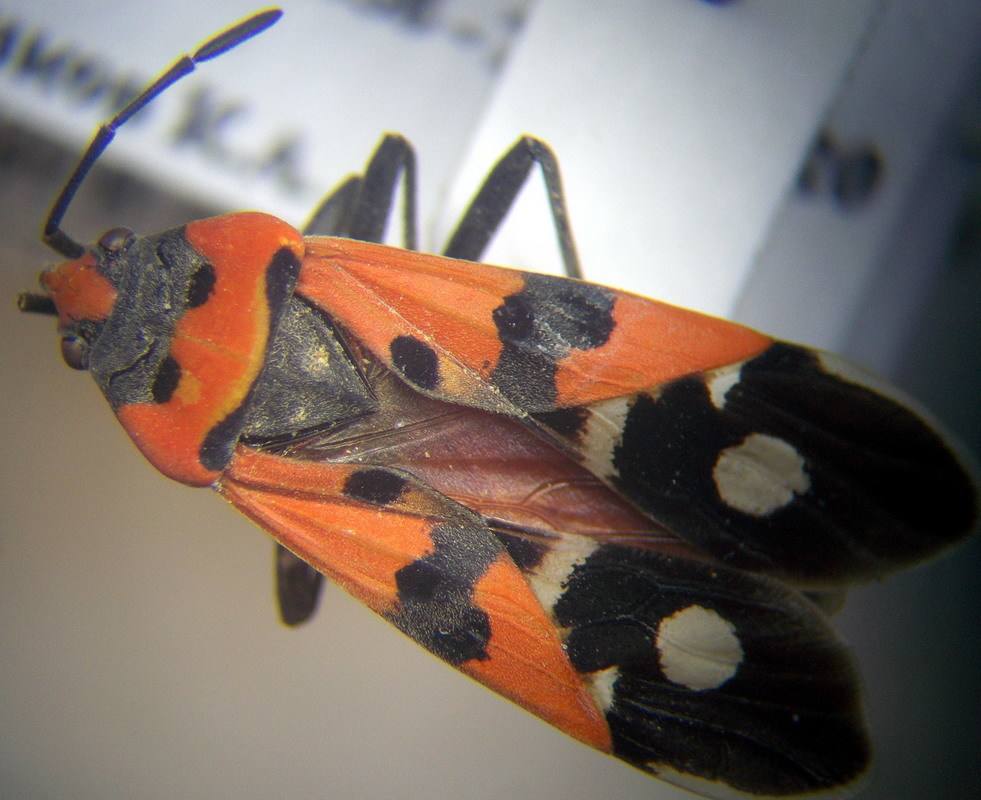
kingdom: Animalia
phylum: Arthropoda
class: Insecta
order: Hemiptera
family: Lygaeidae
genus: Lygaeus
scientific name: Lygaeus simulans
